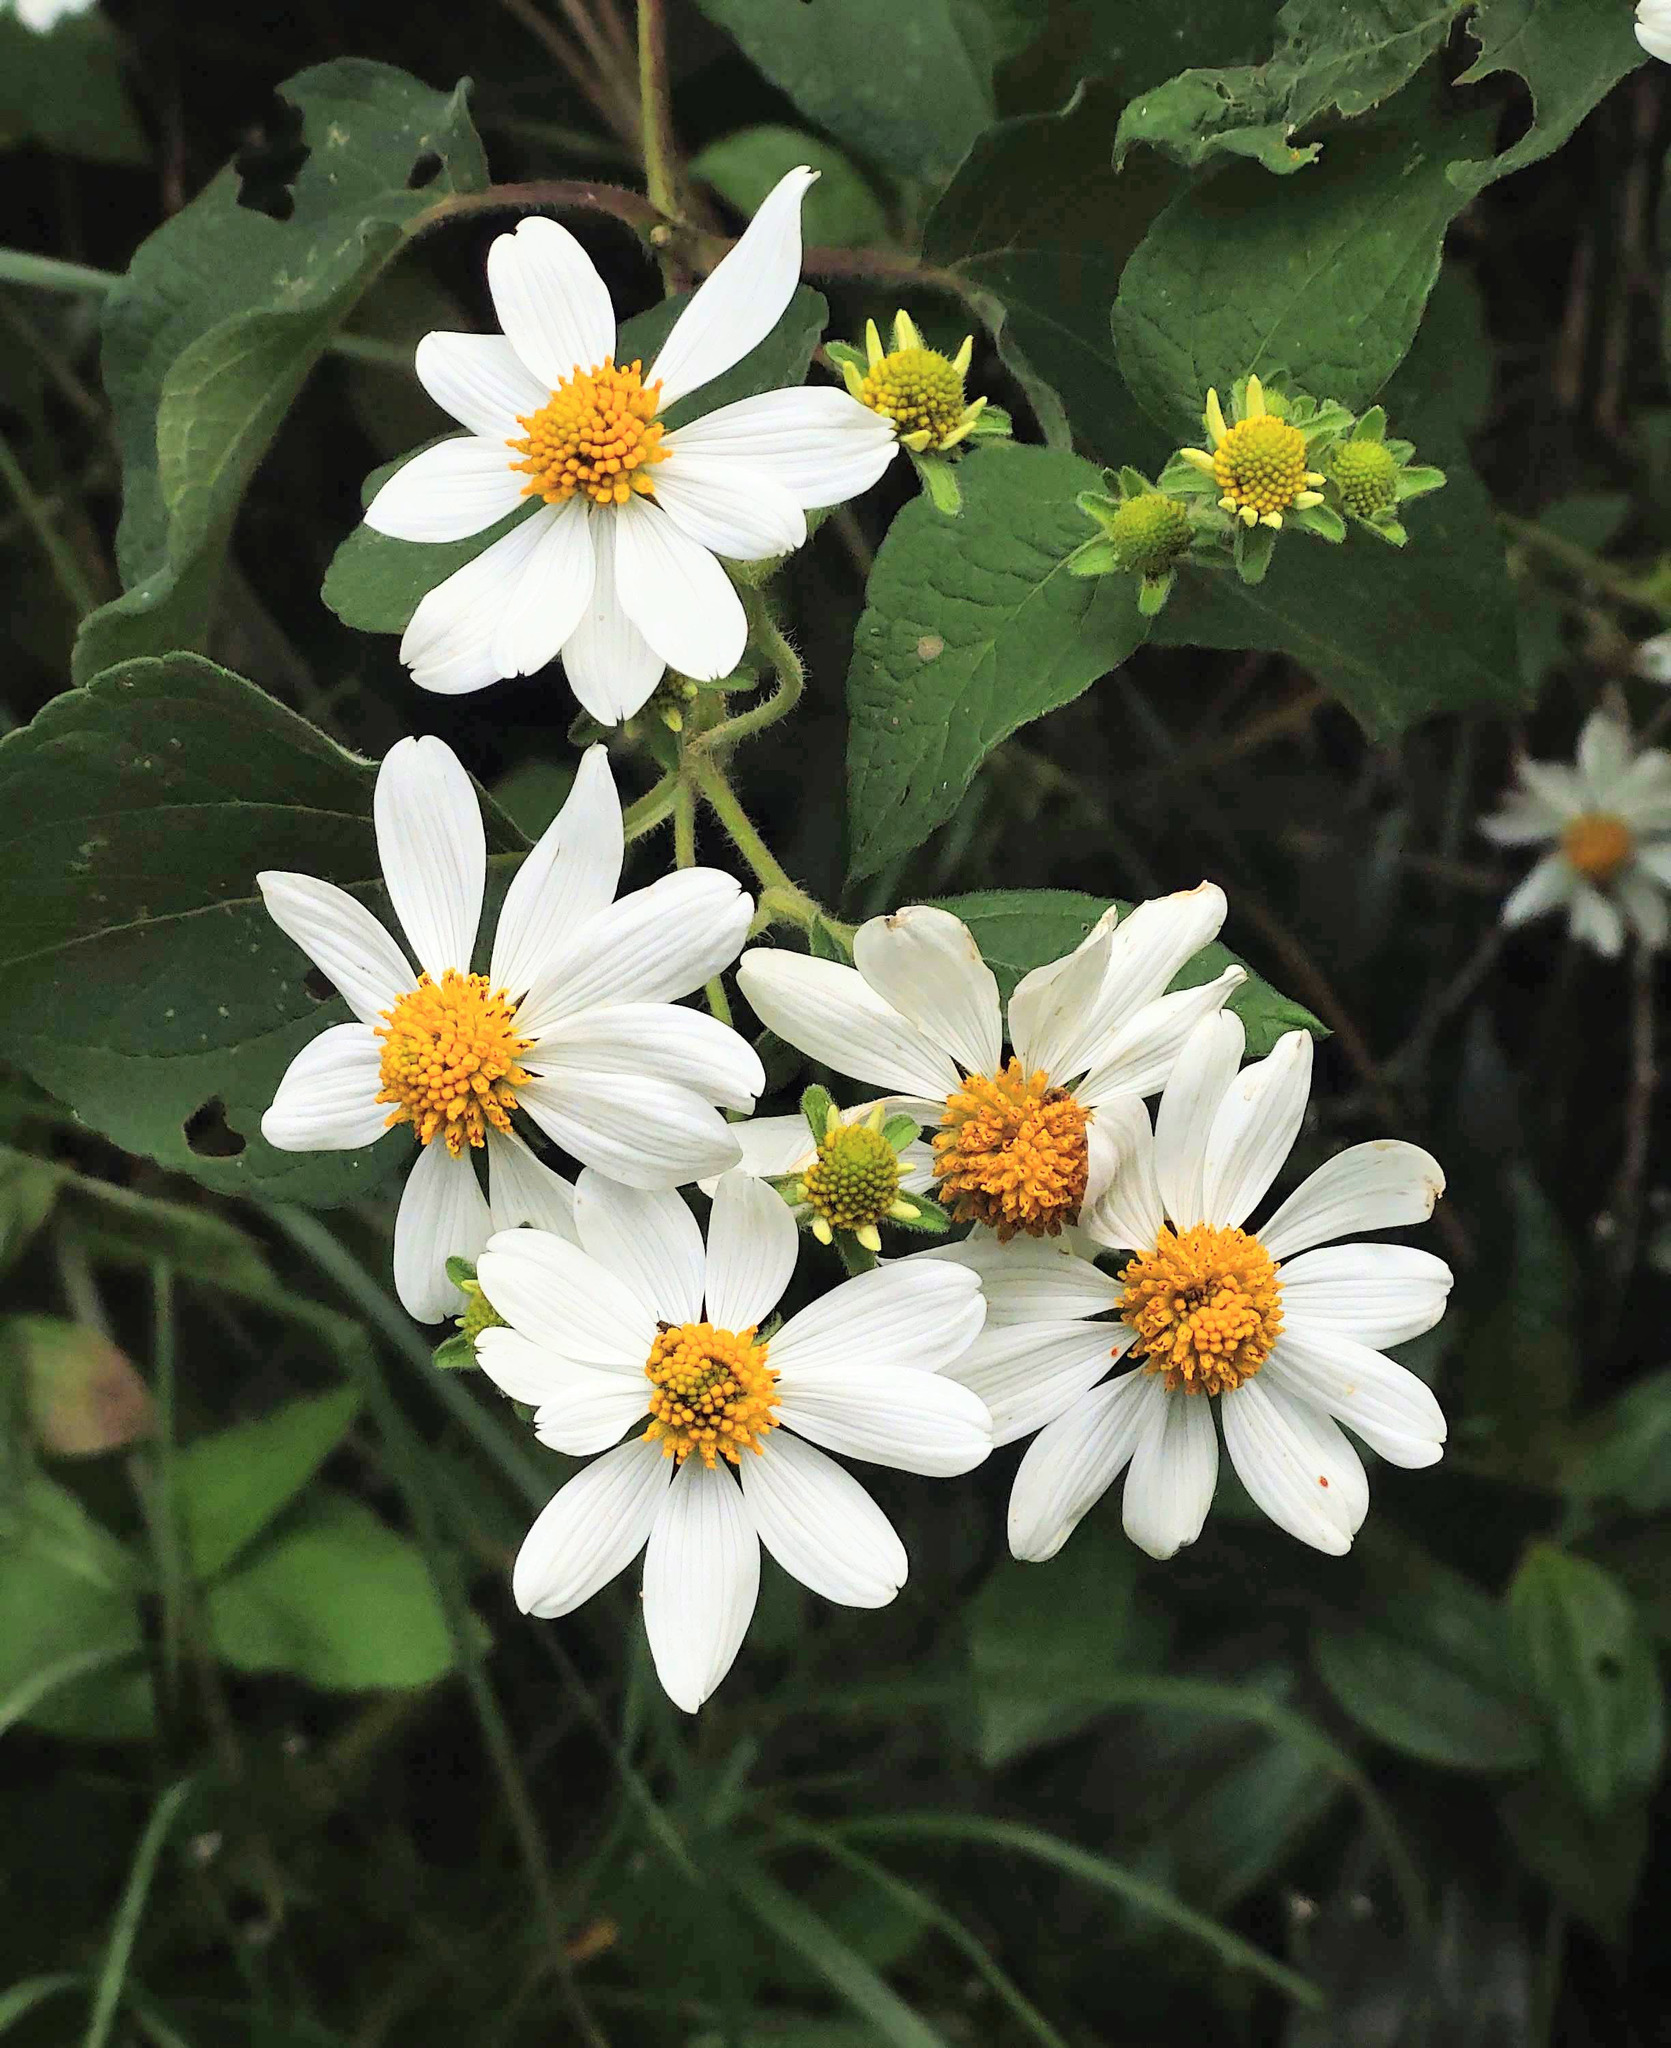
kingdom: Plantae
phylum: Tracheophyta
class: Magnoliopsida
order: Asterales
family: Asteraceae
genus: Montanoa
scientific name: Montanoa ovalifolia
